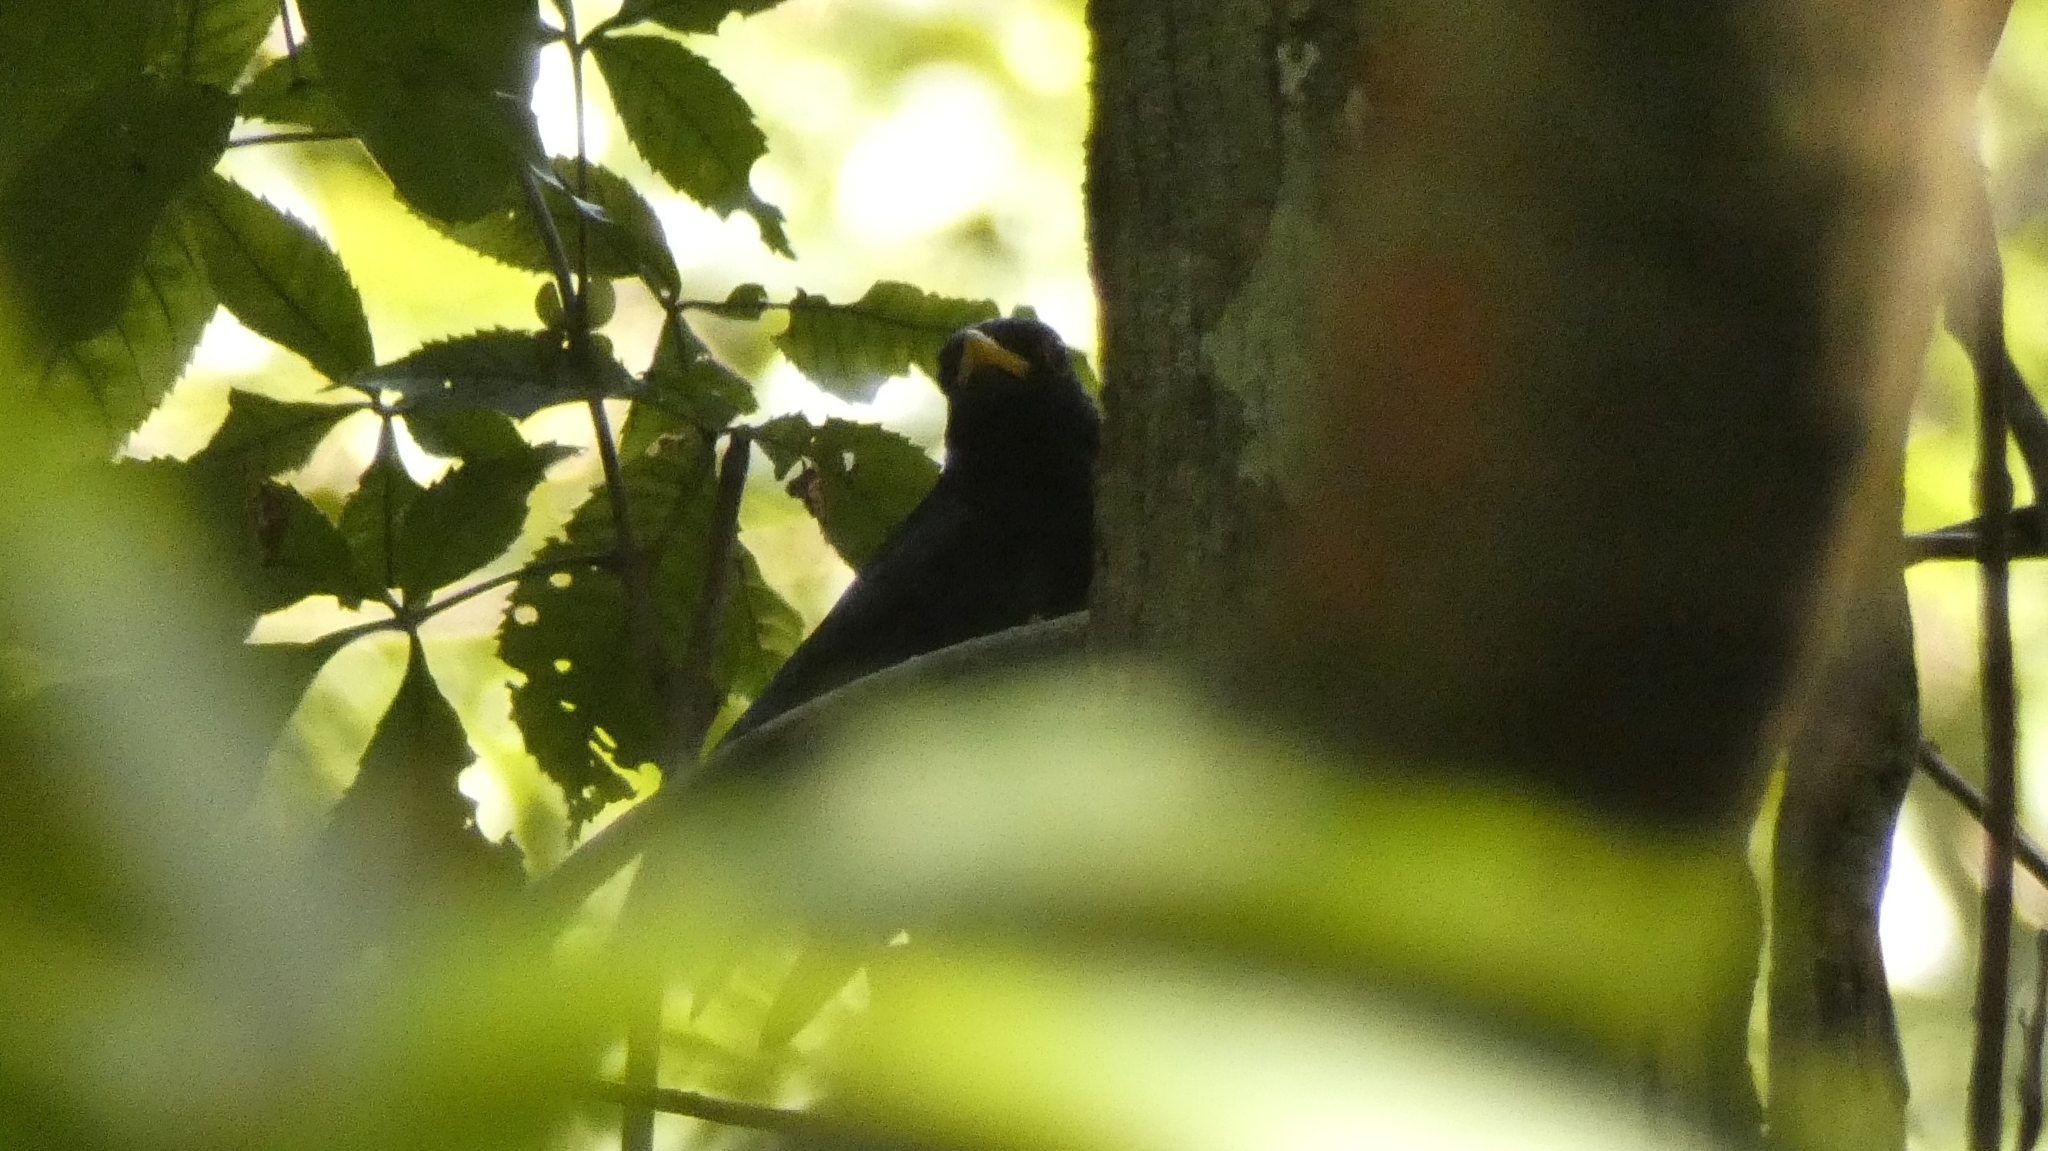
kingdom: Animalia
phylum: Chordata
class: Aves
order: Passeriformes
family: Turdidae
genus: Turdus
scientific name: Turdus flavipes
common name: Yellow-legged thrush
